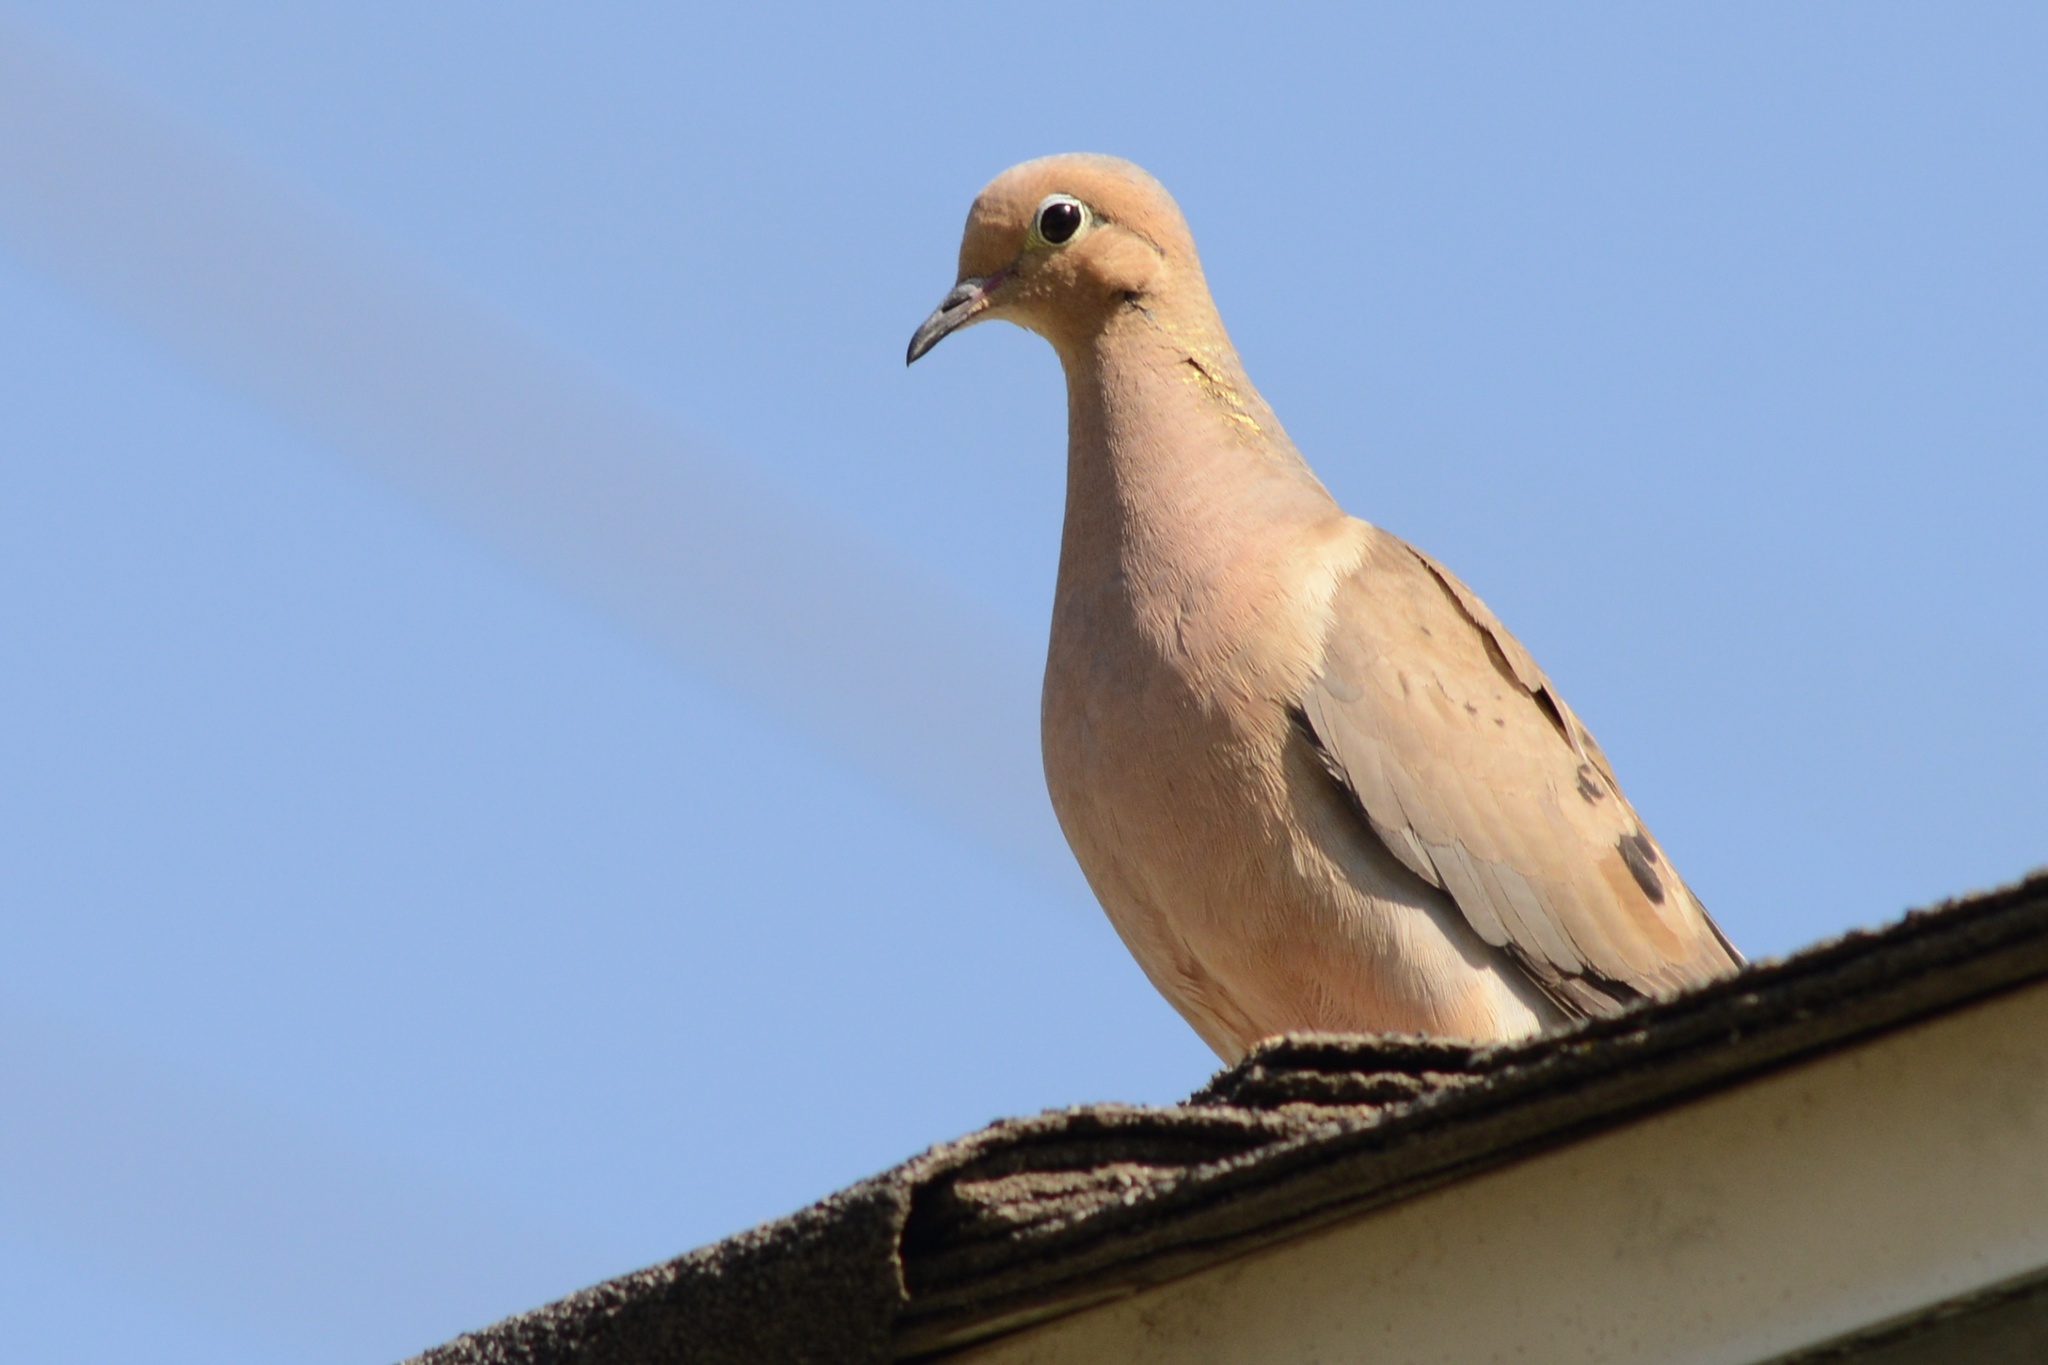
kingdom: Animalia
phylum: Chordata
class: Aves
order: Columbiformes
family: Columbidae
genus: Zenaida
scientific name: Zenaida macroura
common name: Mourning dove
